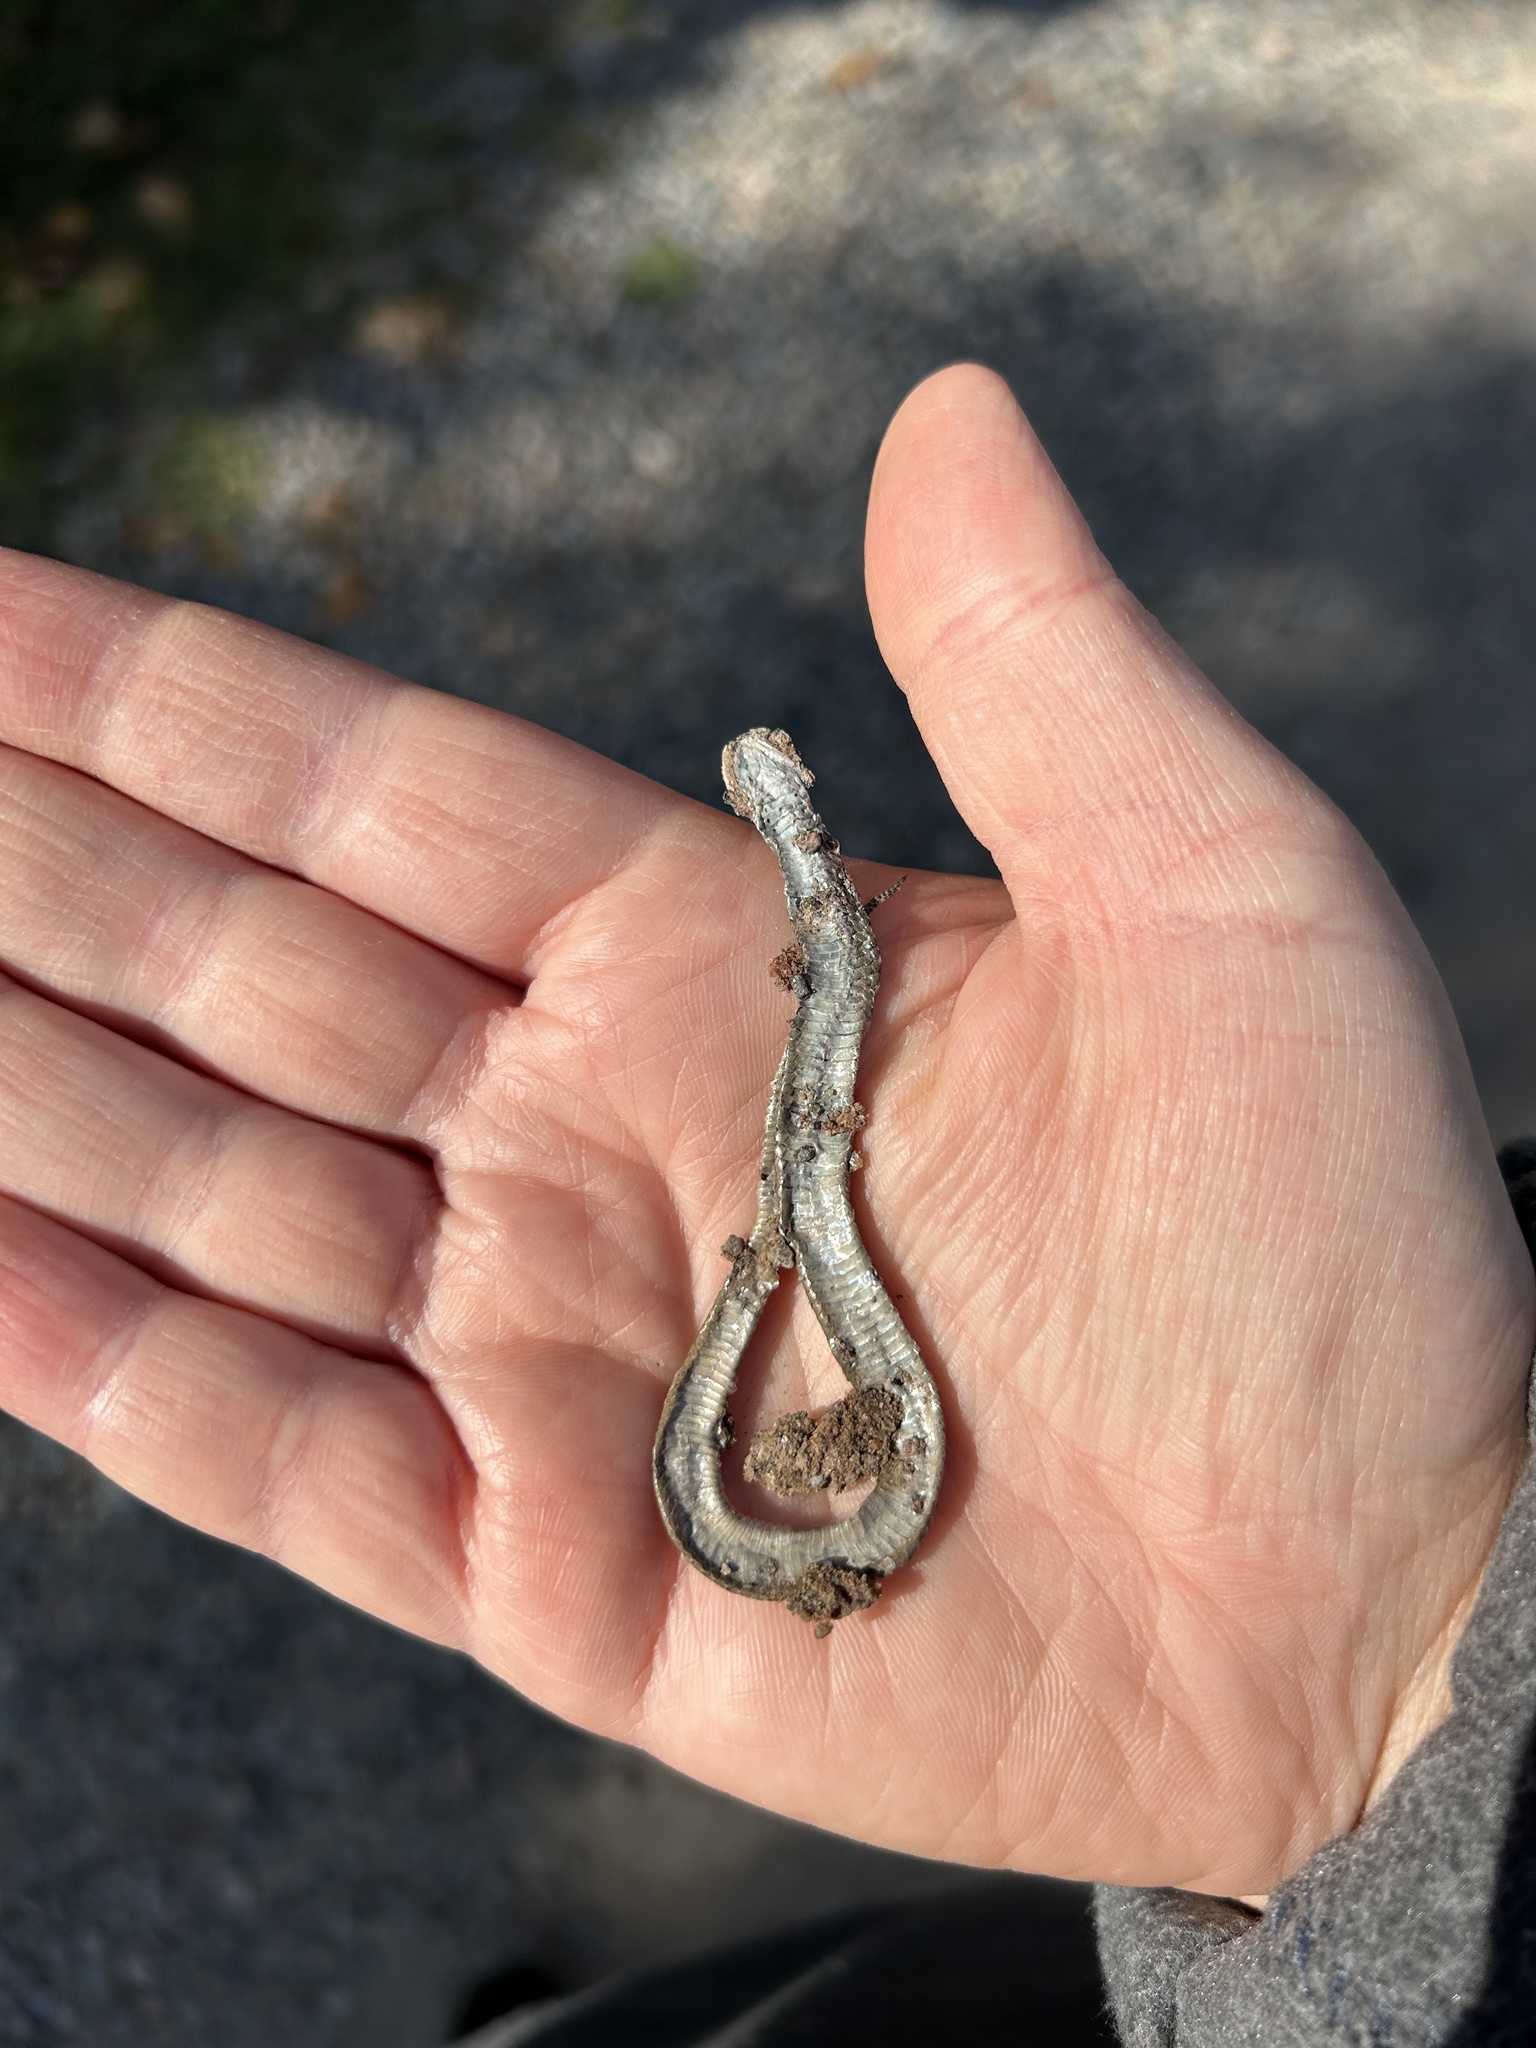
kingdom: Animalia
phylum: Chordata
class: Squamata
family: Colubridae
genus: Storeria
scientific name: Storeria dekayi
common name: (dekay’s) brown snake
